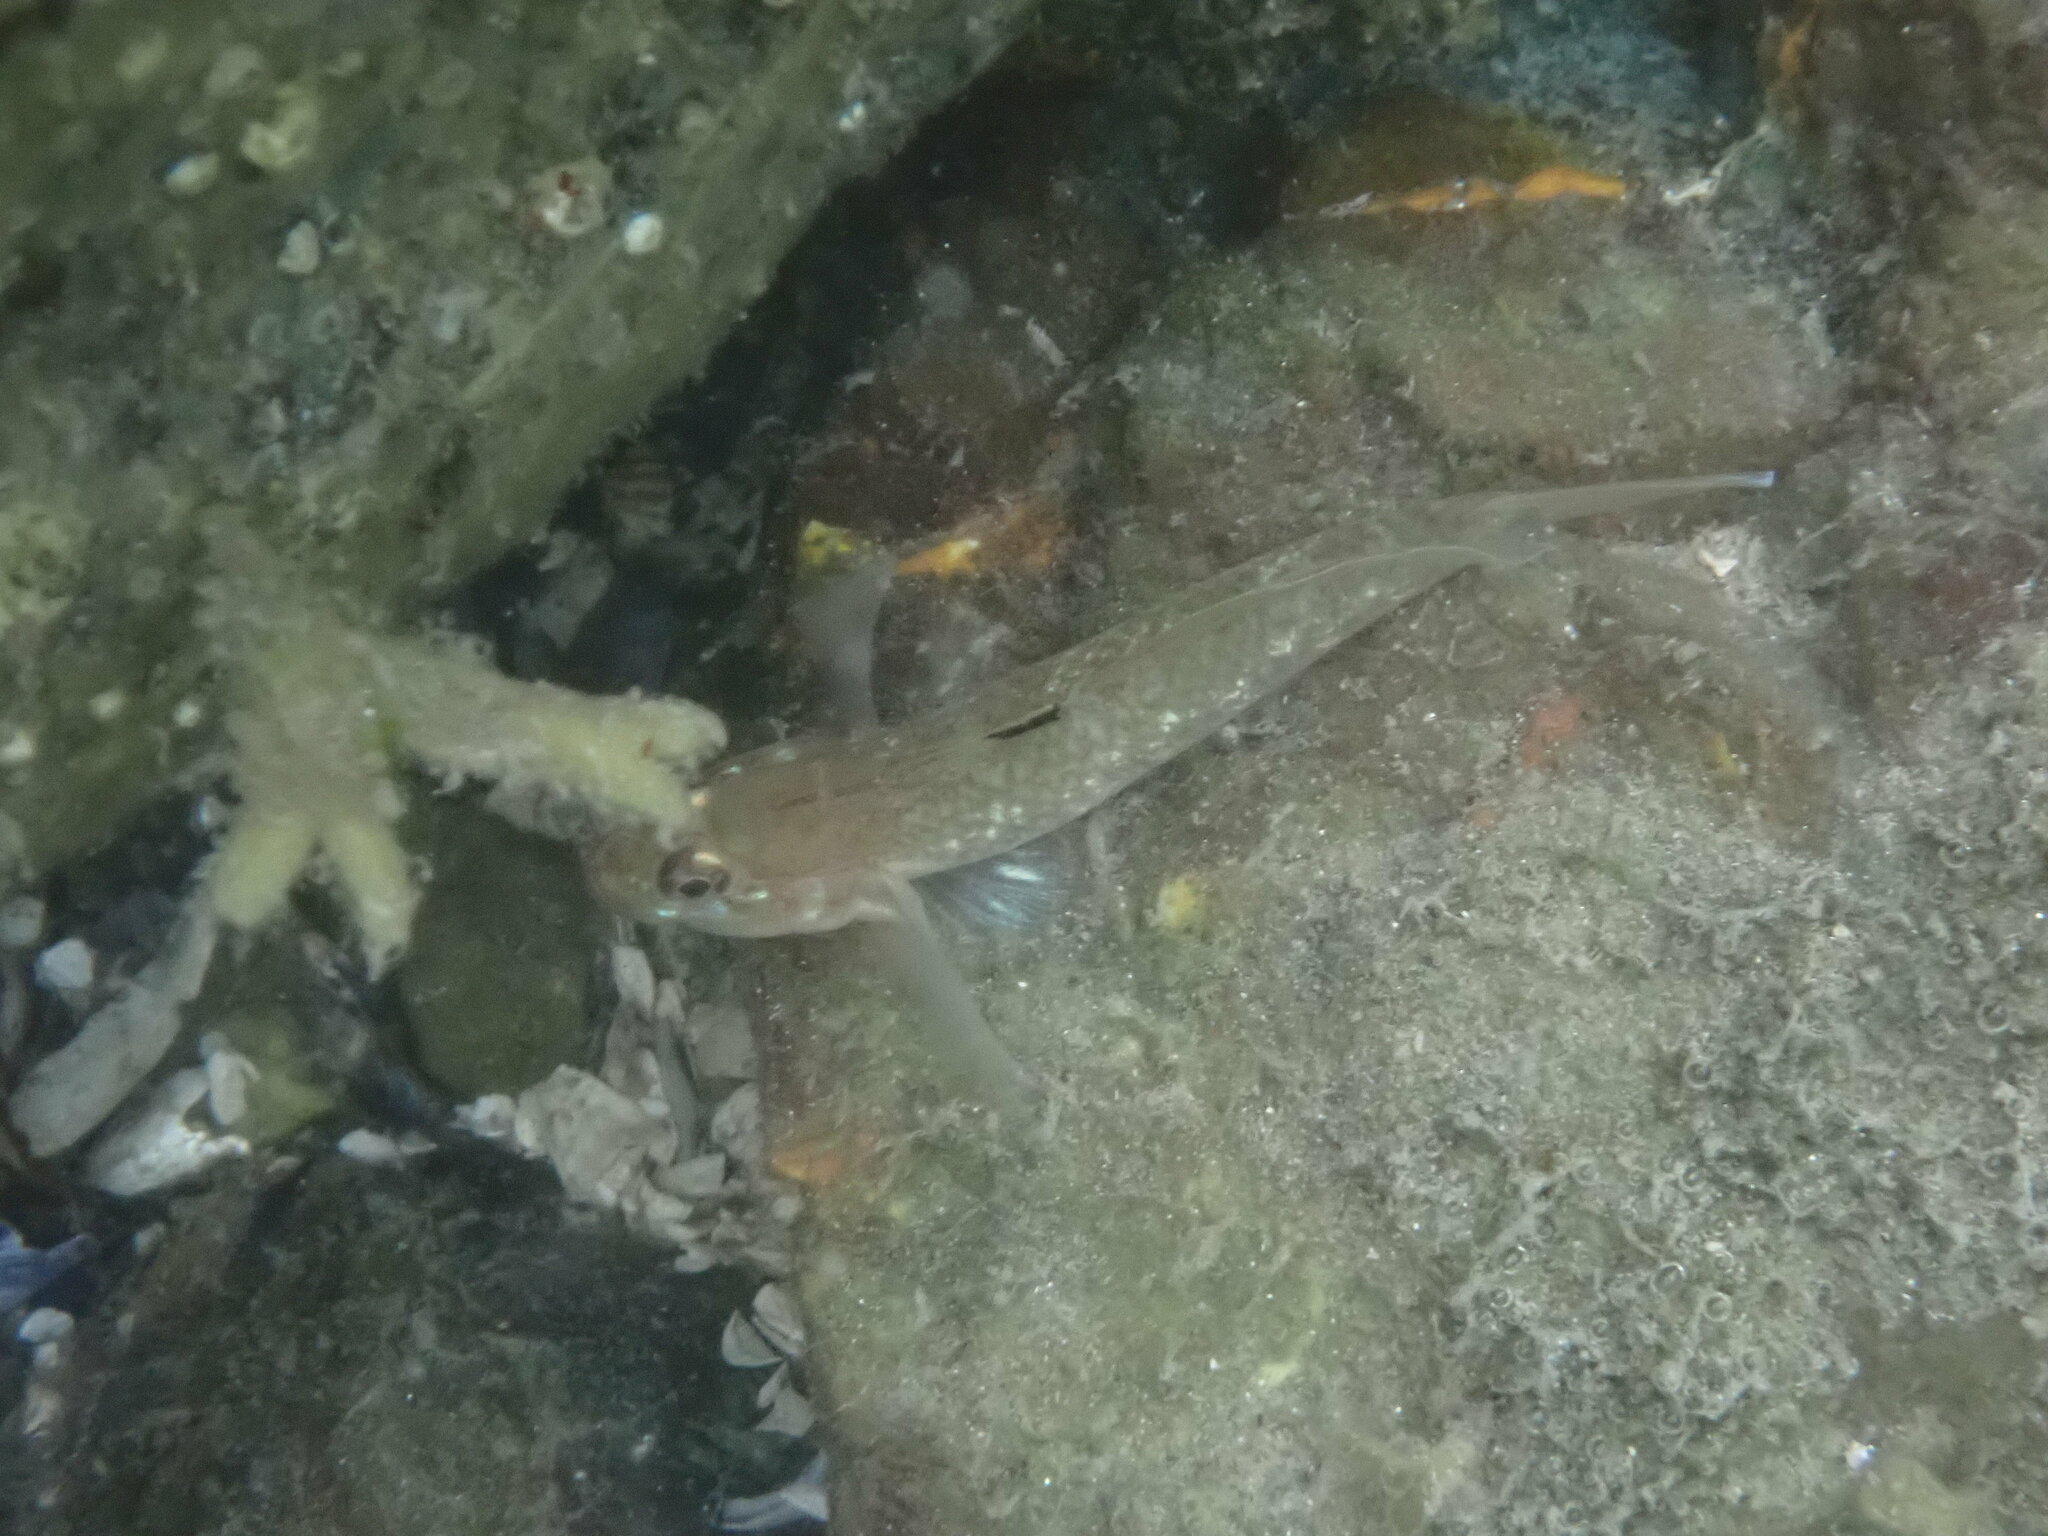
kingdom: Animalia
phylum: Chordata
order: Perciformes
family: Gobiidae
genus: Rhinogobiops
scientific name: Rhinogobiops nicholsii
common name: Blackeye goby
